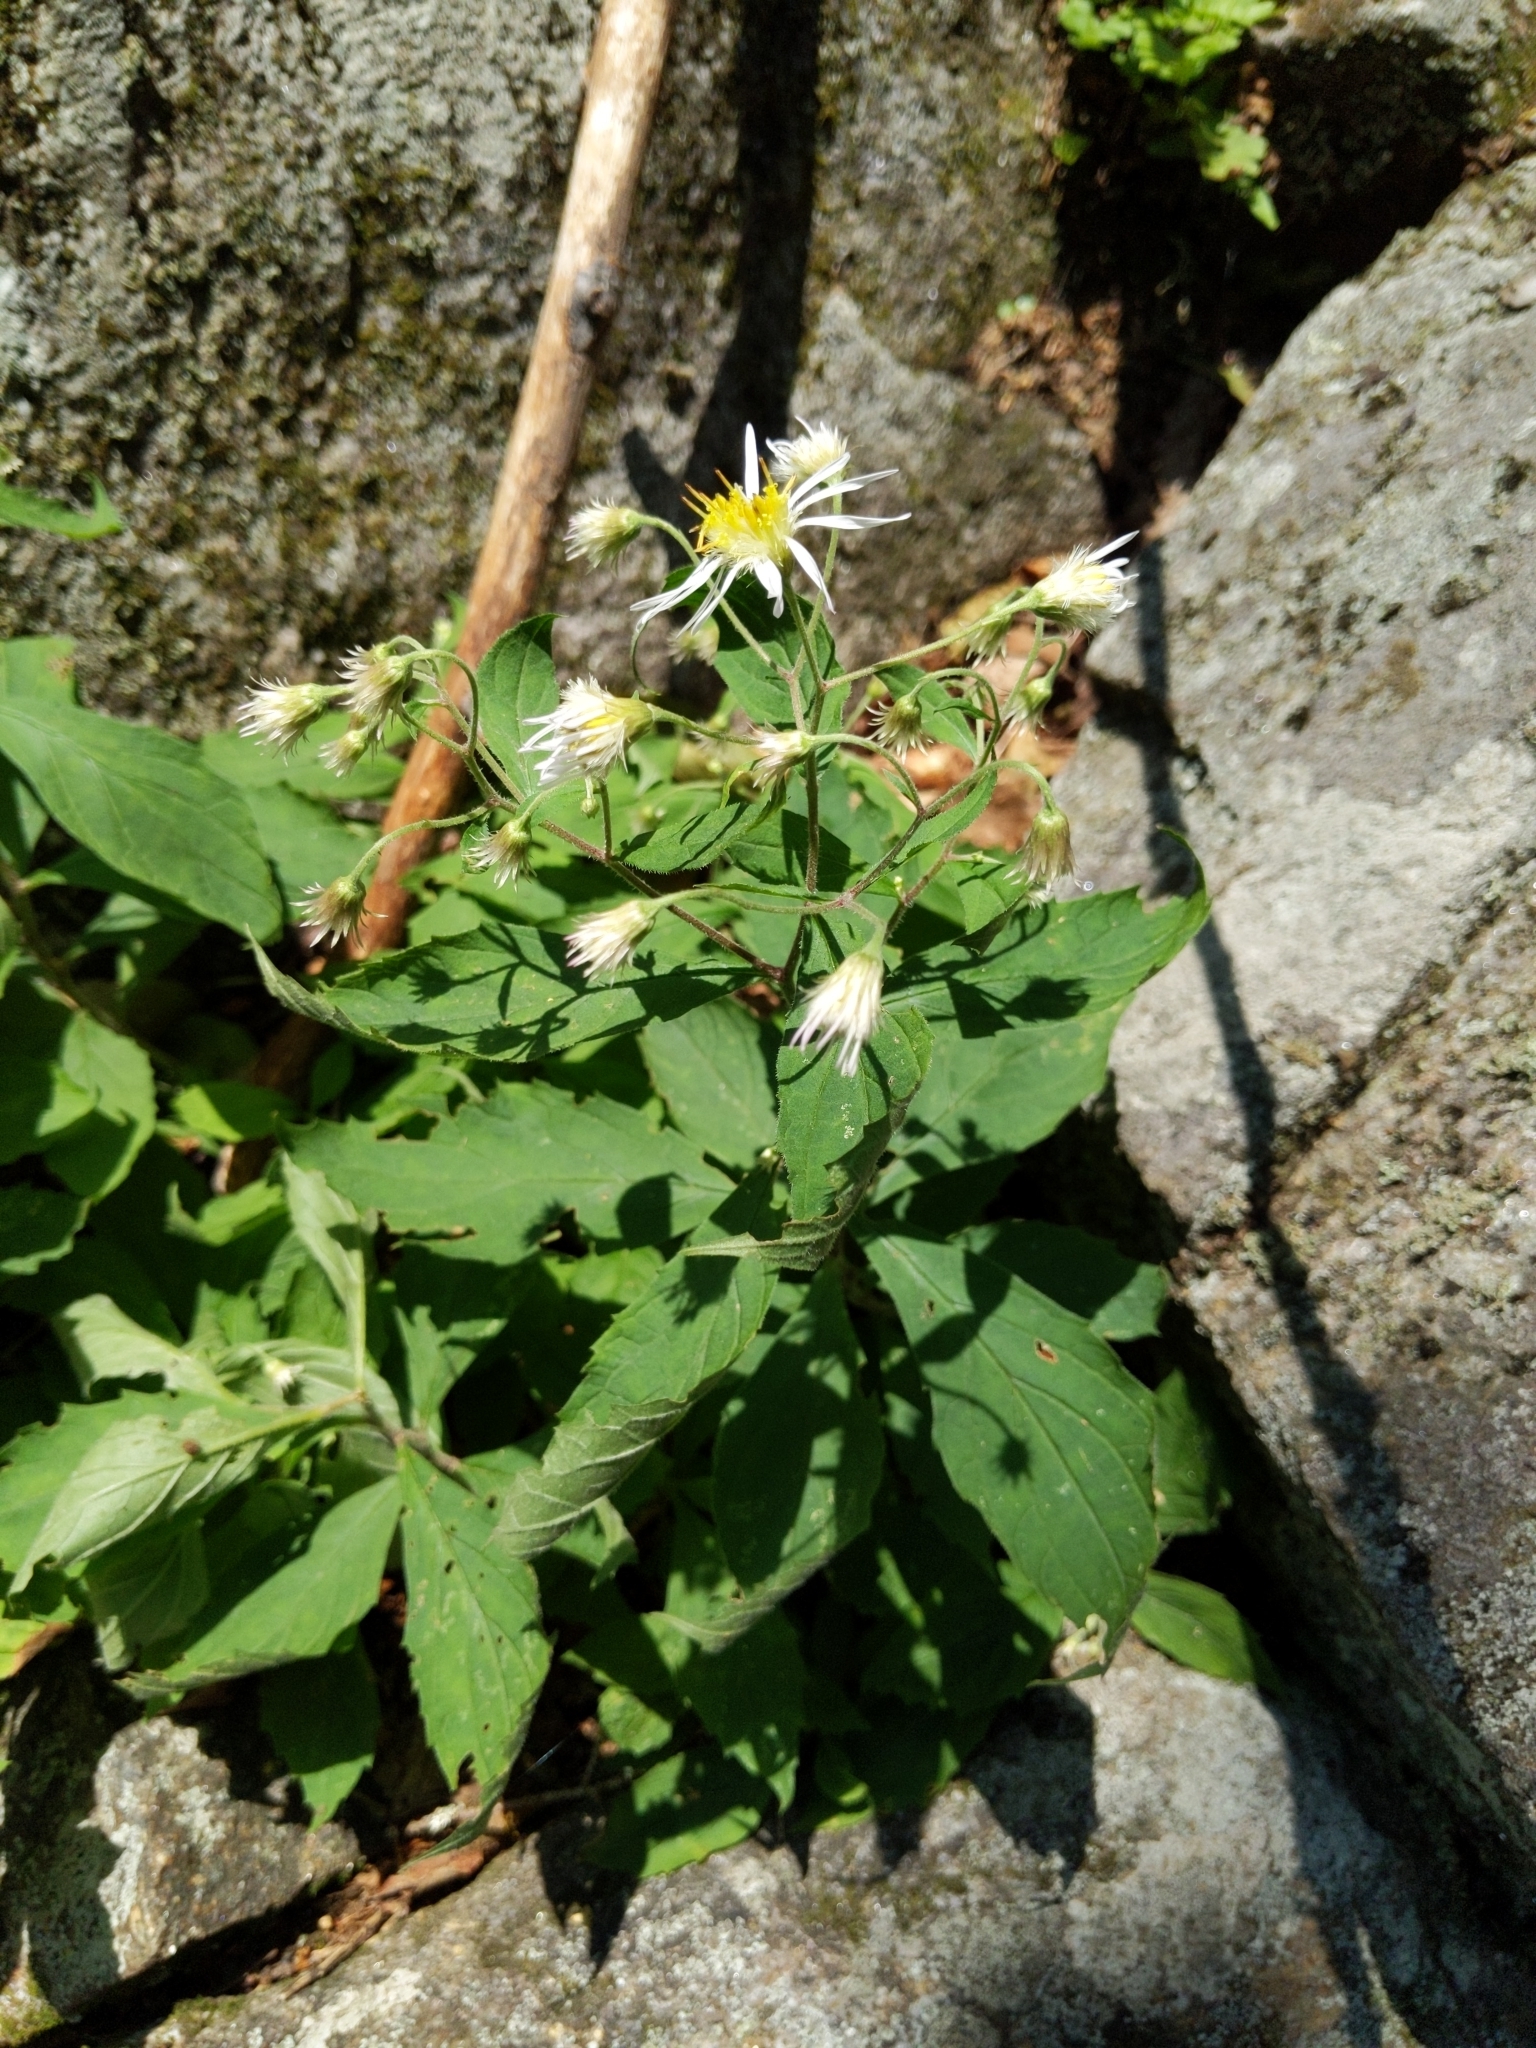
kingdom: Plantae
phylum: Tracheophyta
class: Magnoliopsida
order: Asterales
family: Asteraceae
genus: Oclemena
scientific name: Oclemena acuminata
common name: Mountain aster
